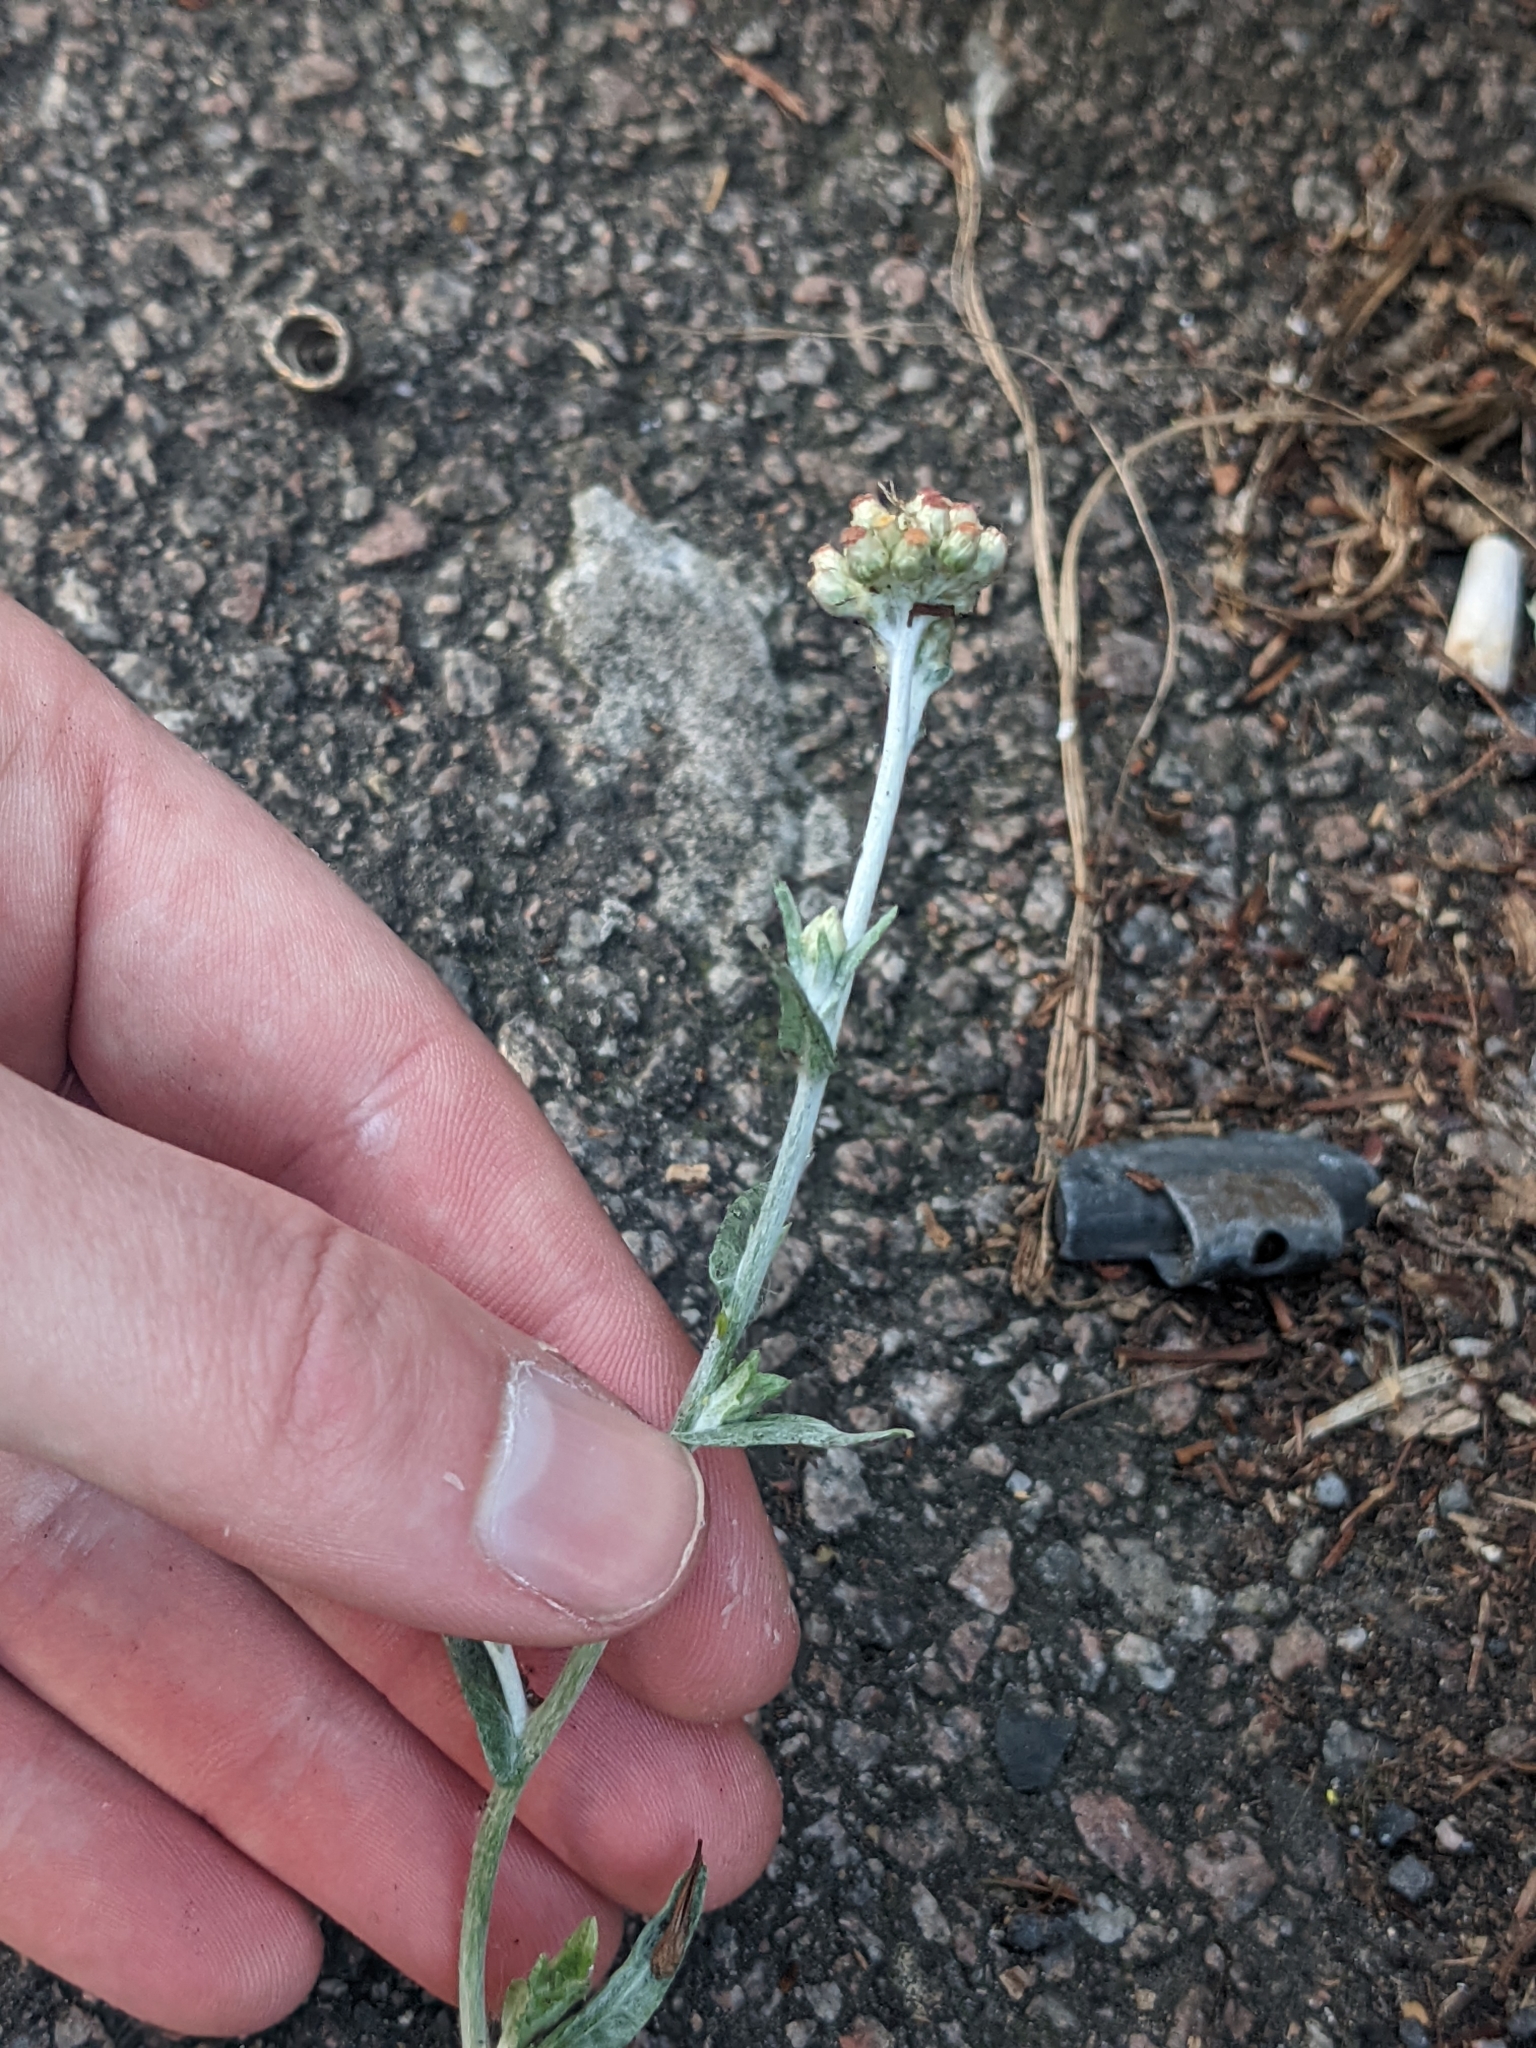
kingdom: Plantae
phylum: Tracheophyta
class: Magnoliopsida
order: Asterales
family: Asteraceae
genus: Helichrysum
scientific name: Helichrysum luteoalbum
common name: Daisy
